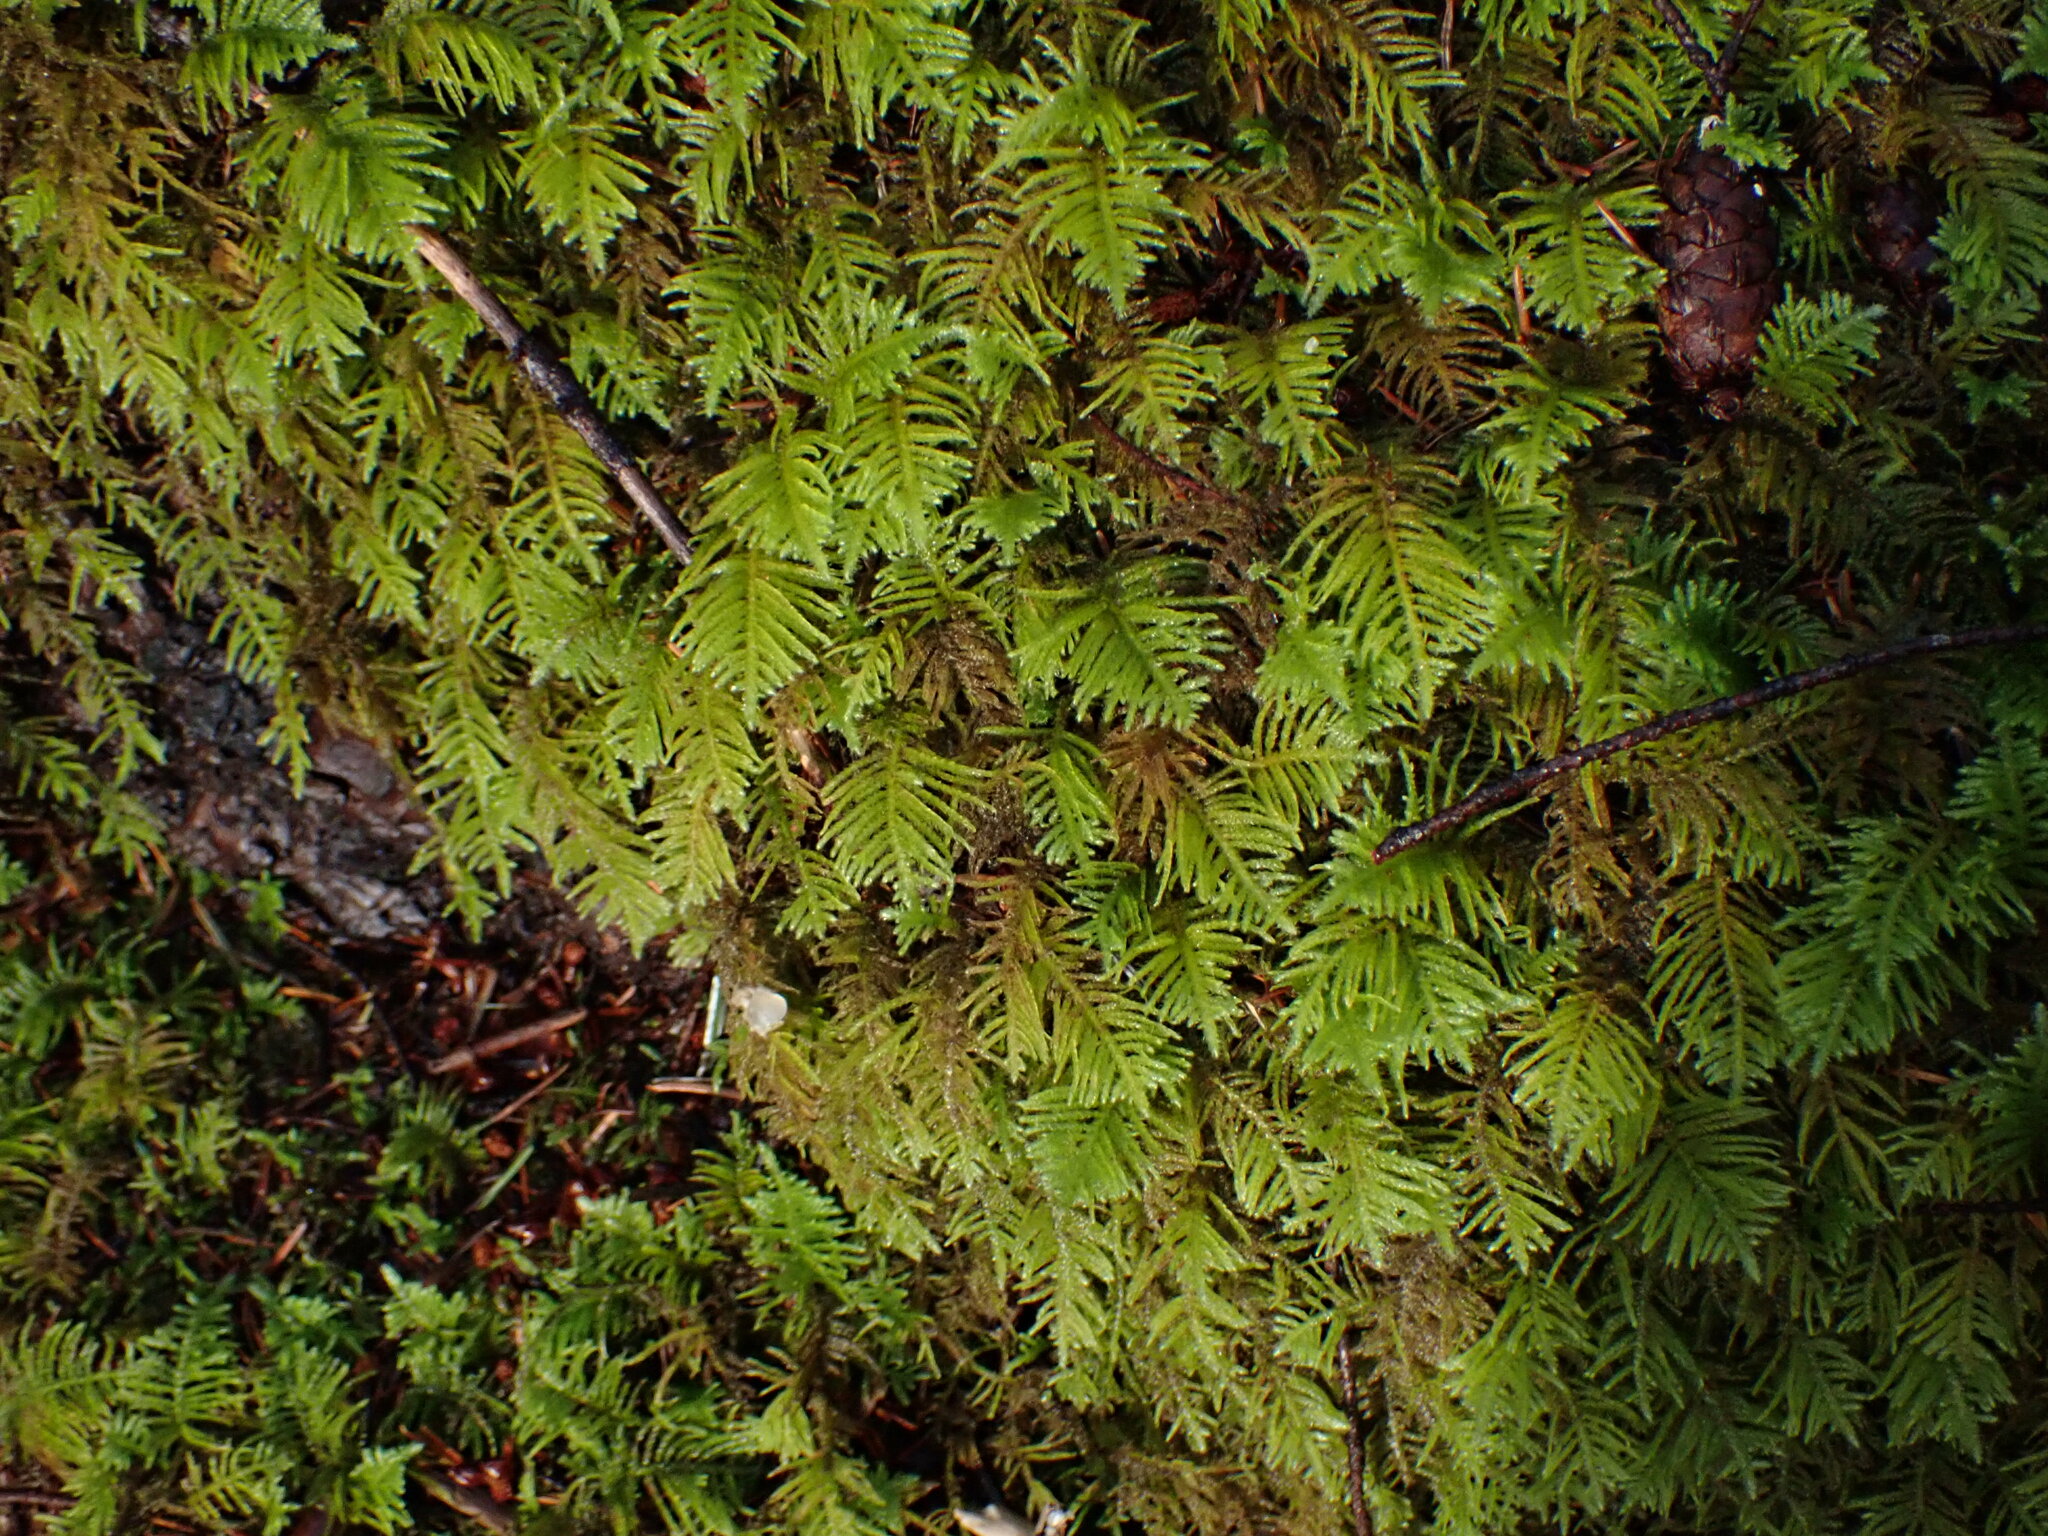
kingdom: Plantae
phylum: Bryophyta
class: Bryopsida
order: Hypnales
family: Brachytheciaceae
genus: Kindbergia
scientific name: Kindbergia oregana
